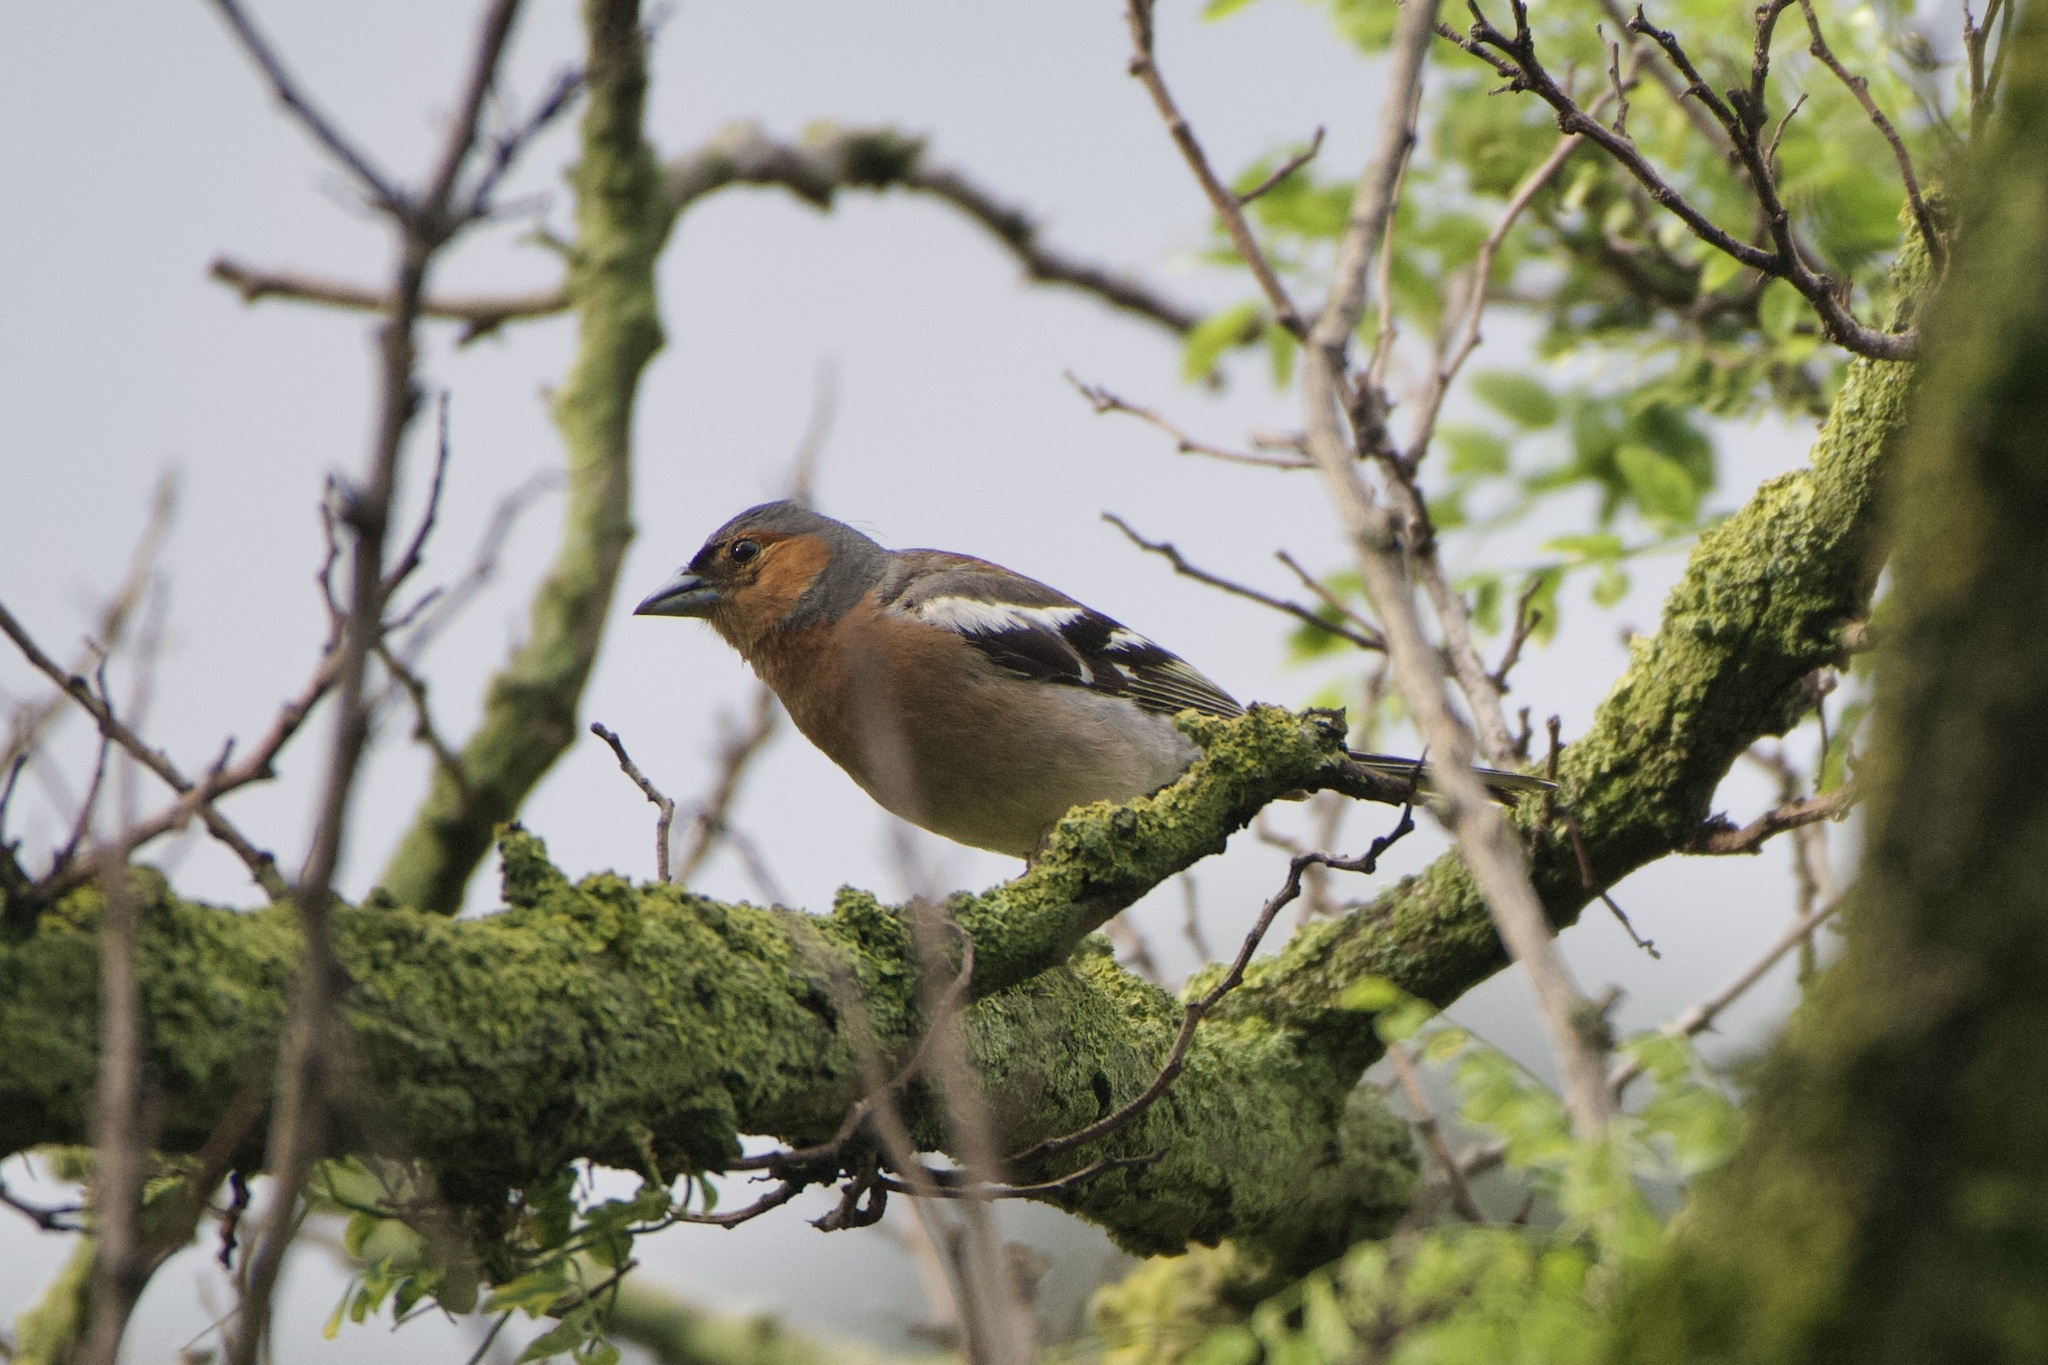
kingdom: Animalia
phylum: Chordata
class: Aves
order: Passeriformes
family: Fringillidae
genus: Fringilla
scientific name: Fringilla coelebs
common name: Common chaffinch
